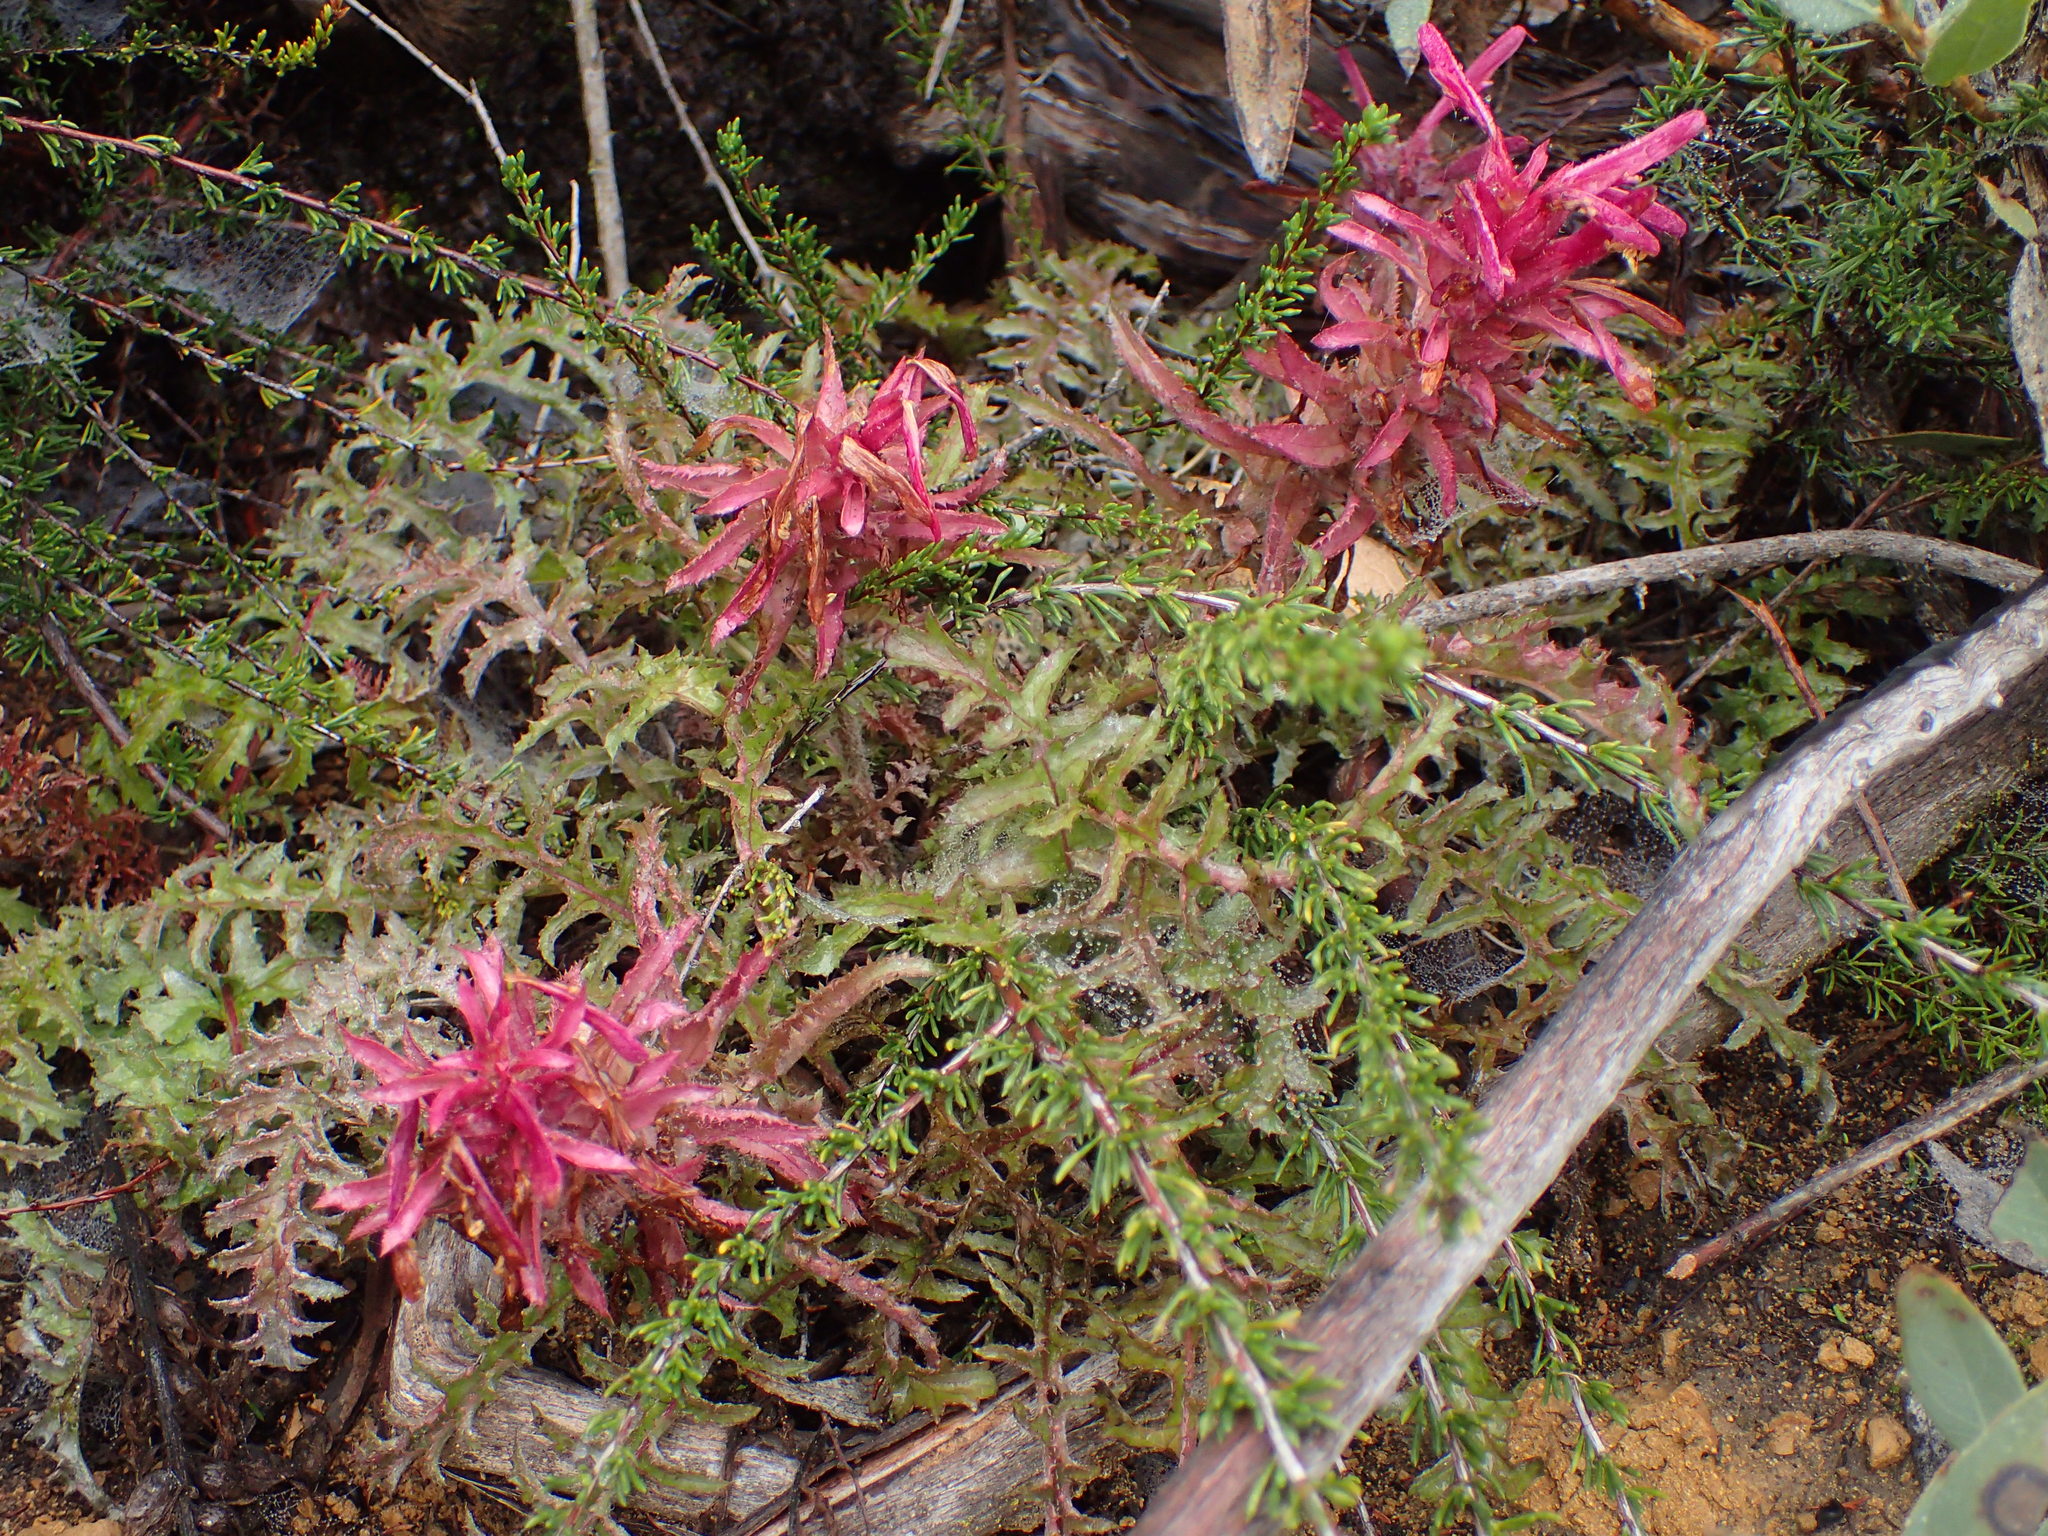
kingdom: Plantae
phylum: Tracheophyta
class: Magnoliopsida
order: Lamiales
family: Orobanchaceae
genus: Pedicularis
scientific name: Pedicularis densiflora
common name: Indian warrior
